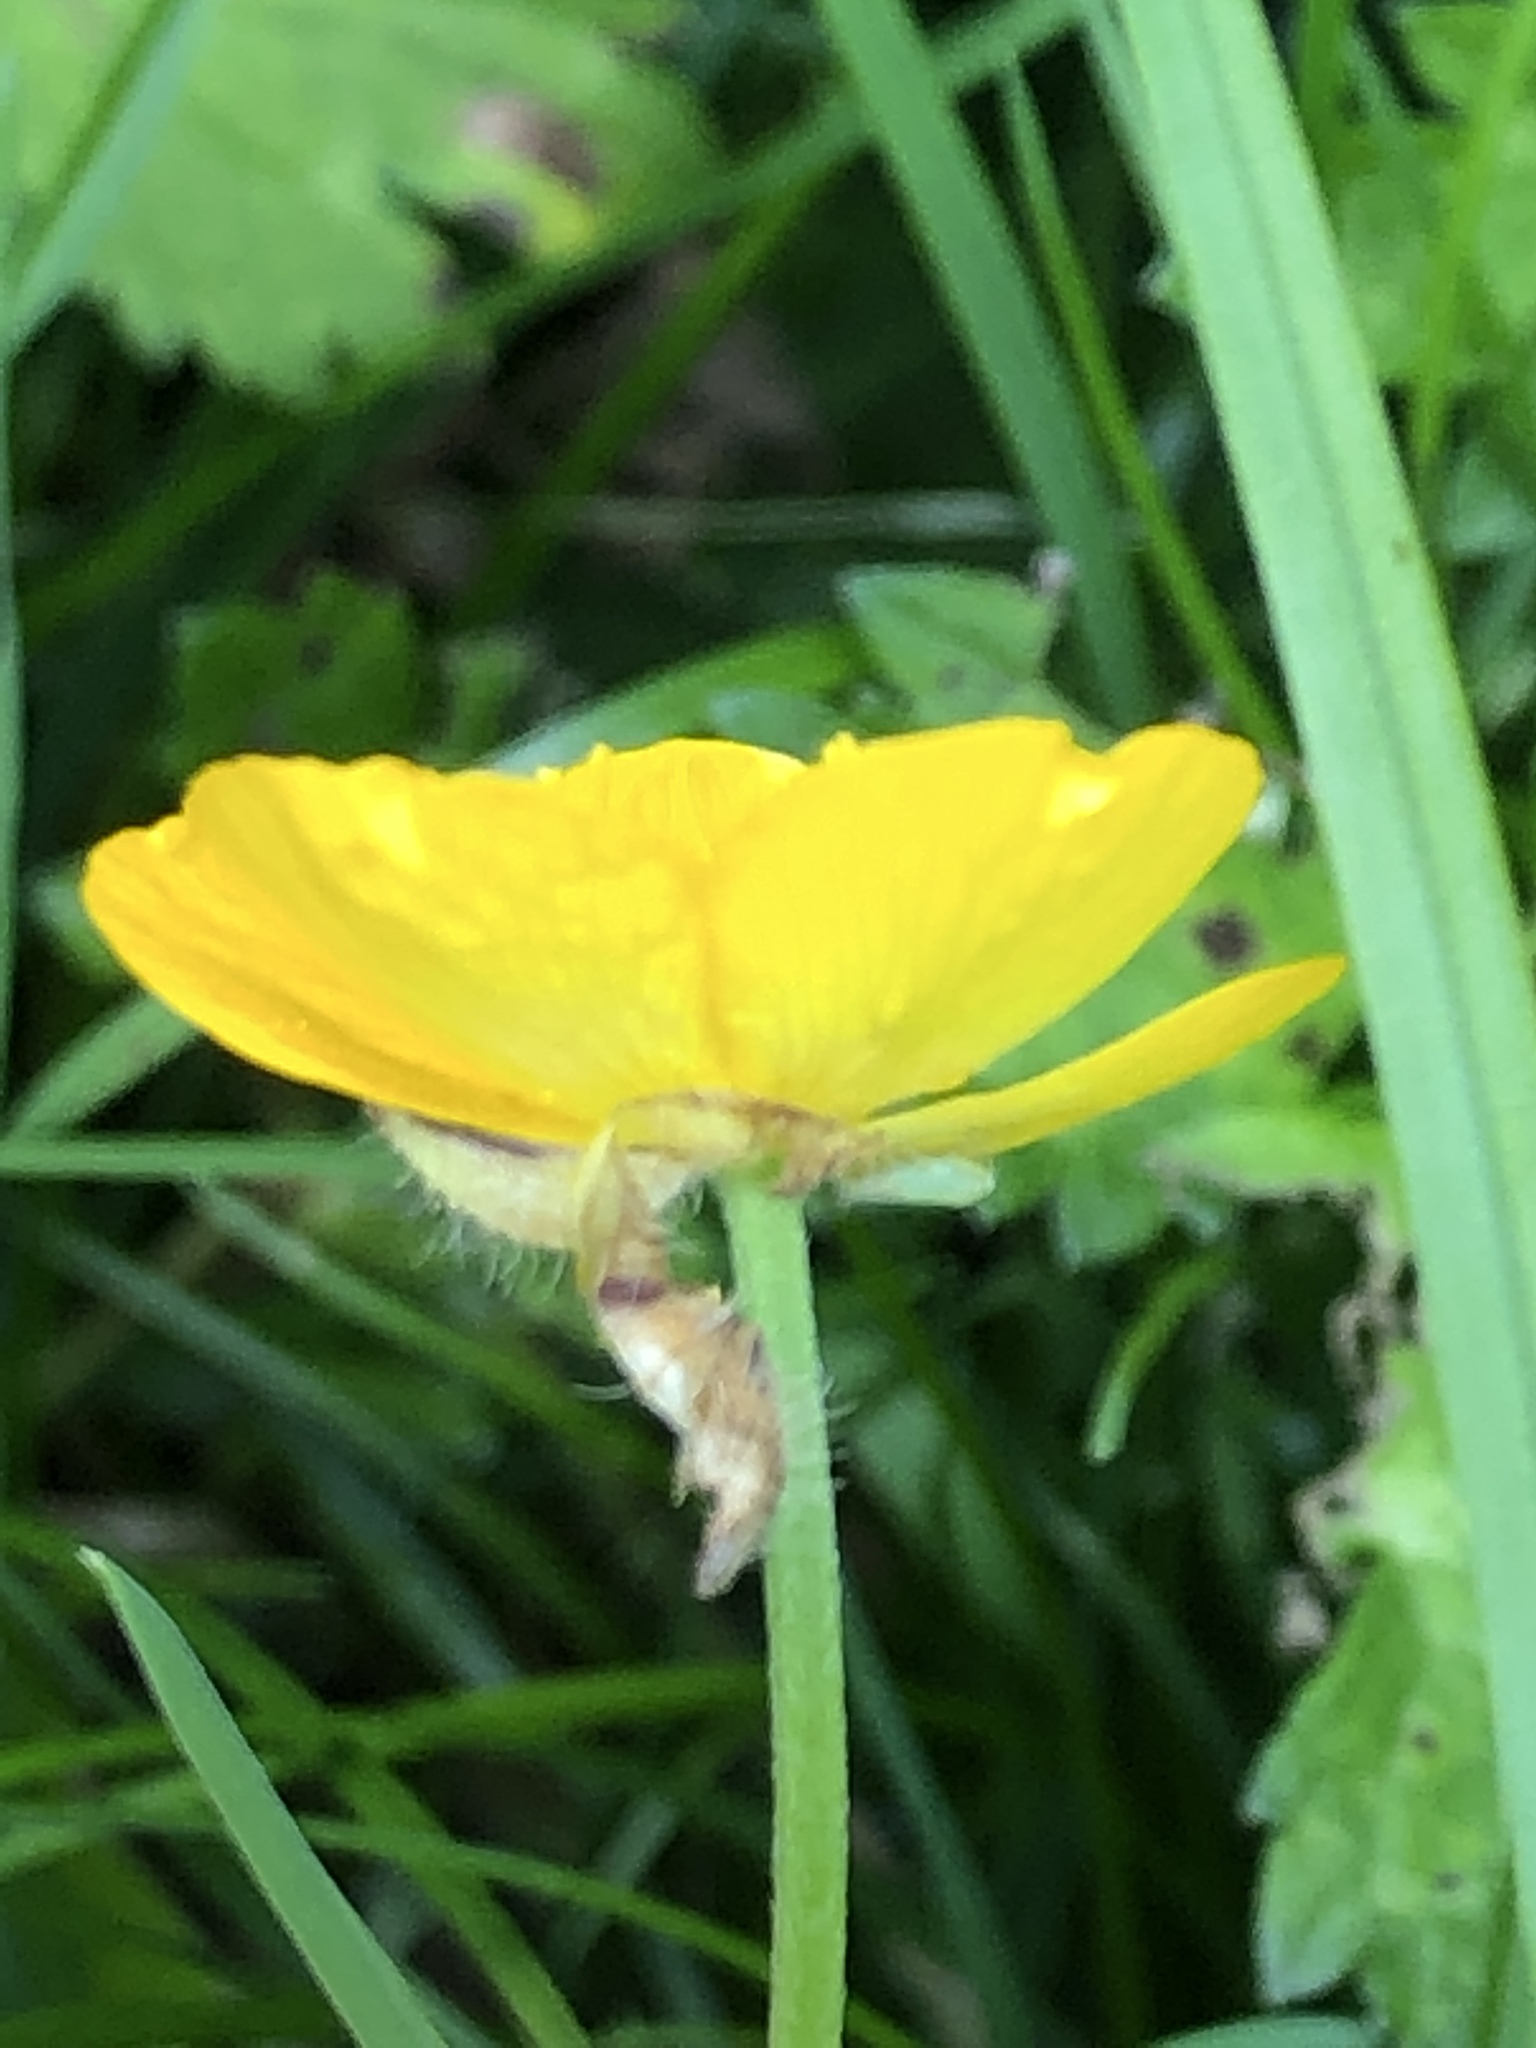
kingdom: Plantae
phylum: Tracheophyta
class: Magnoliopsida
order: Ranunculales
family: Ranunculaceae
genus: Ranunculus
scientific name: Ranunculus repens
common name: Creeping buttercup
